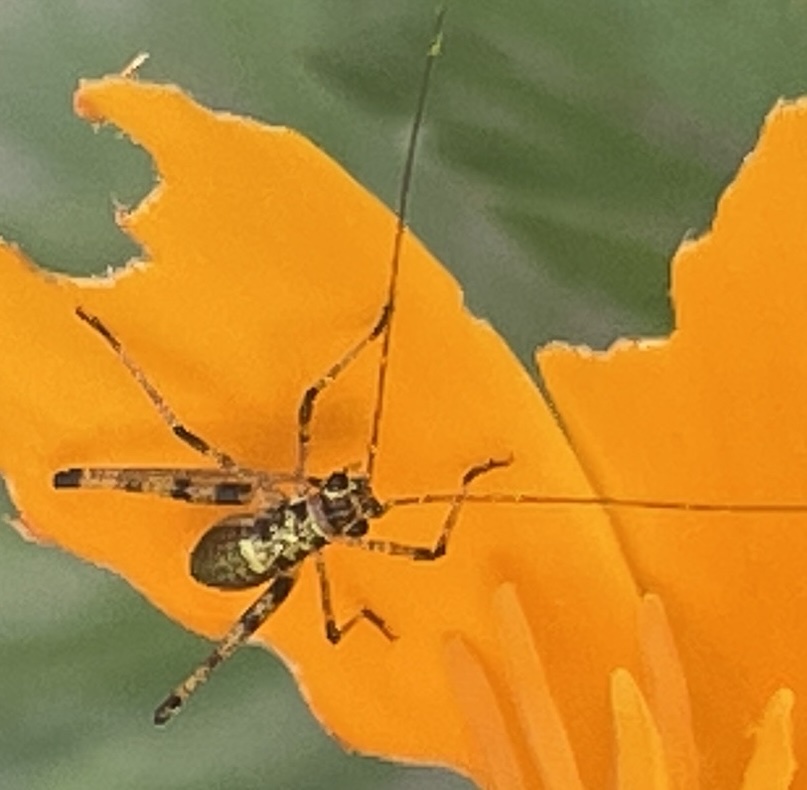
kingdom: Animalia
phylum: Arthropoda
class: Insecta
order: Orthoptera
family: Tettigoniidae
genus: Phaneroptera
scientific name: Phaneroptera nana
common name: Southern sickle bush-cricket
